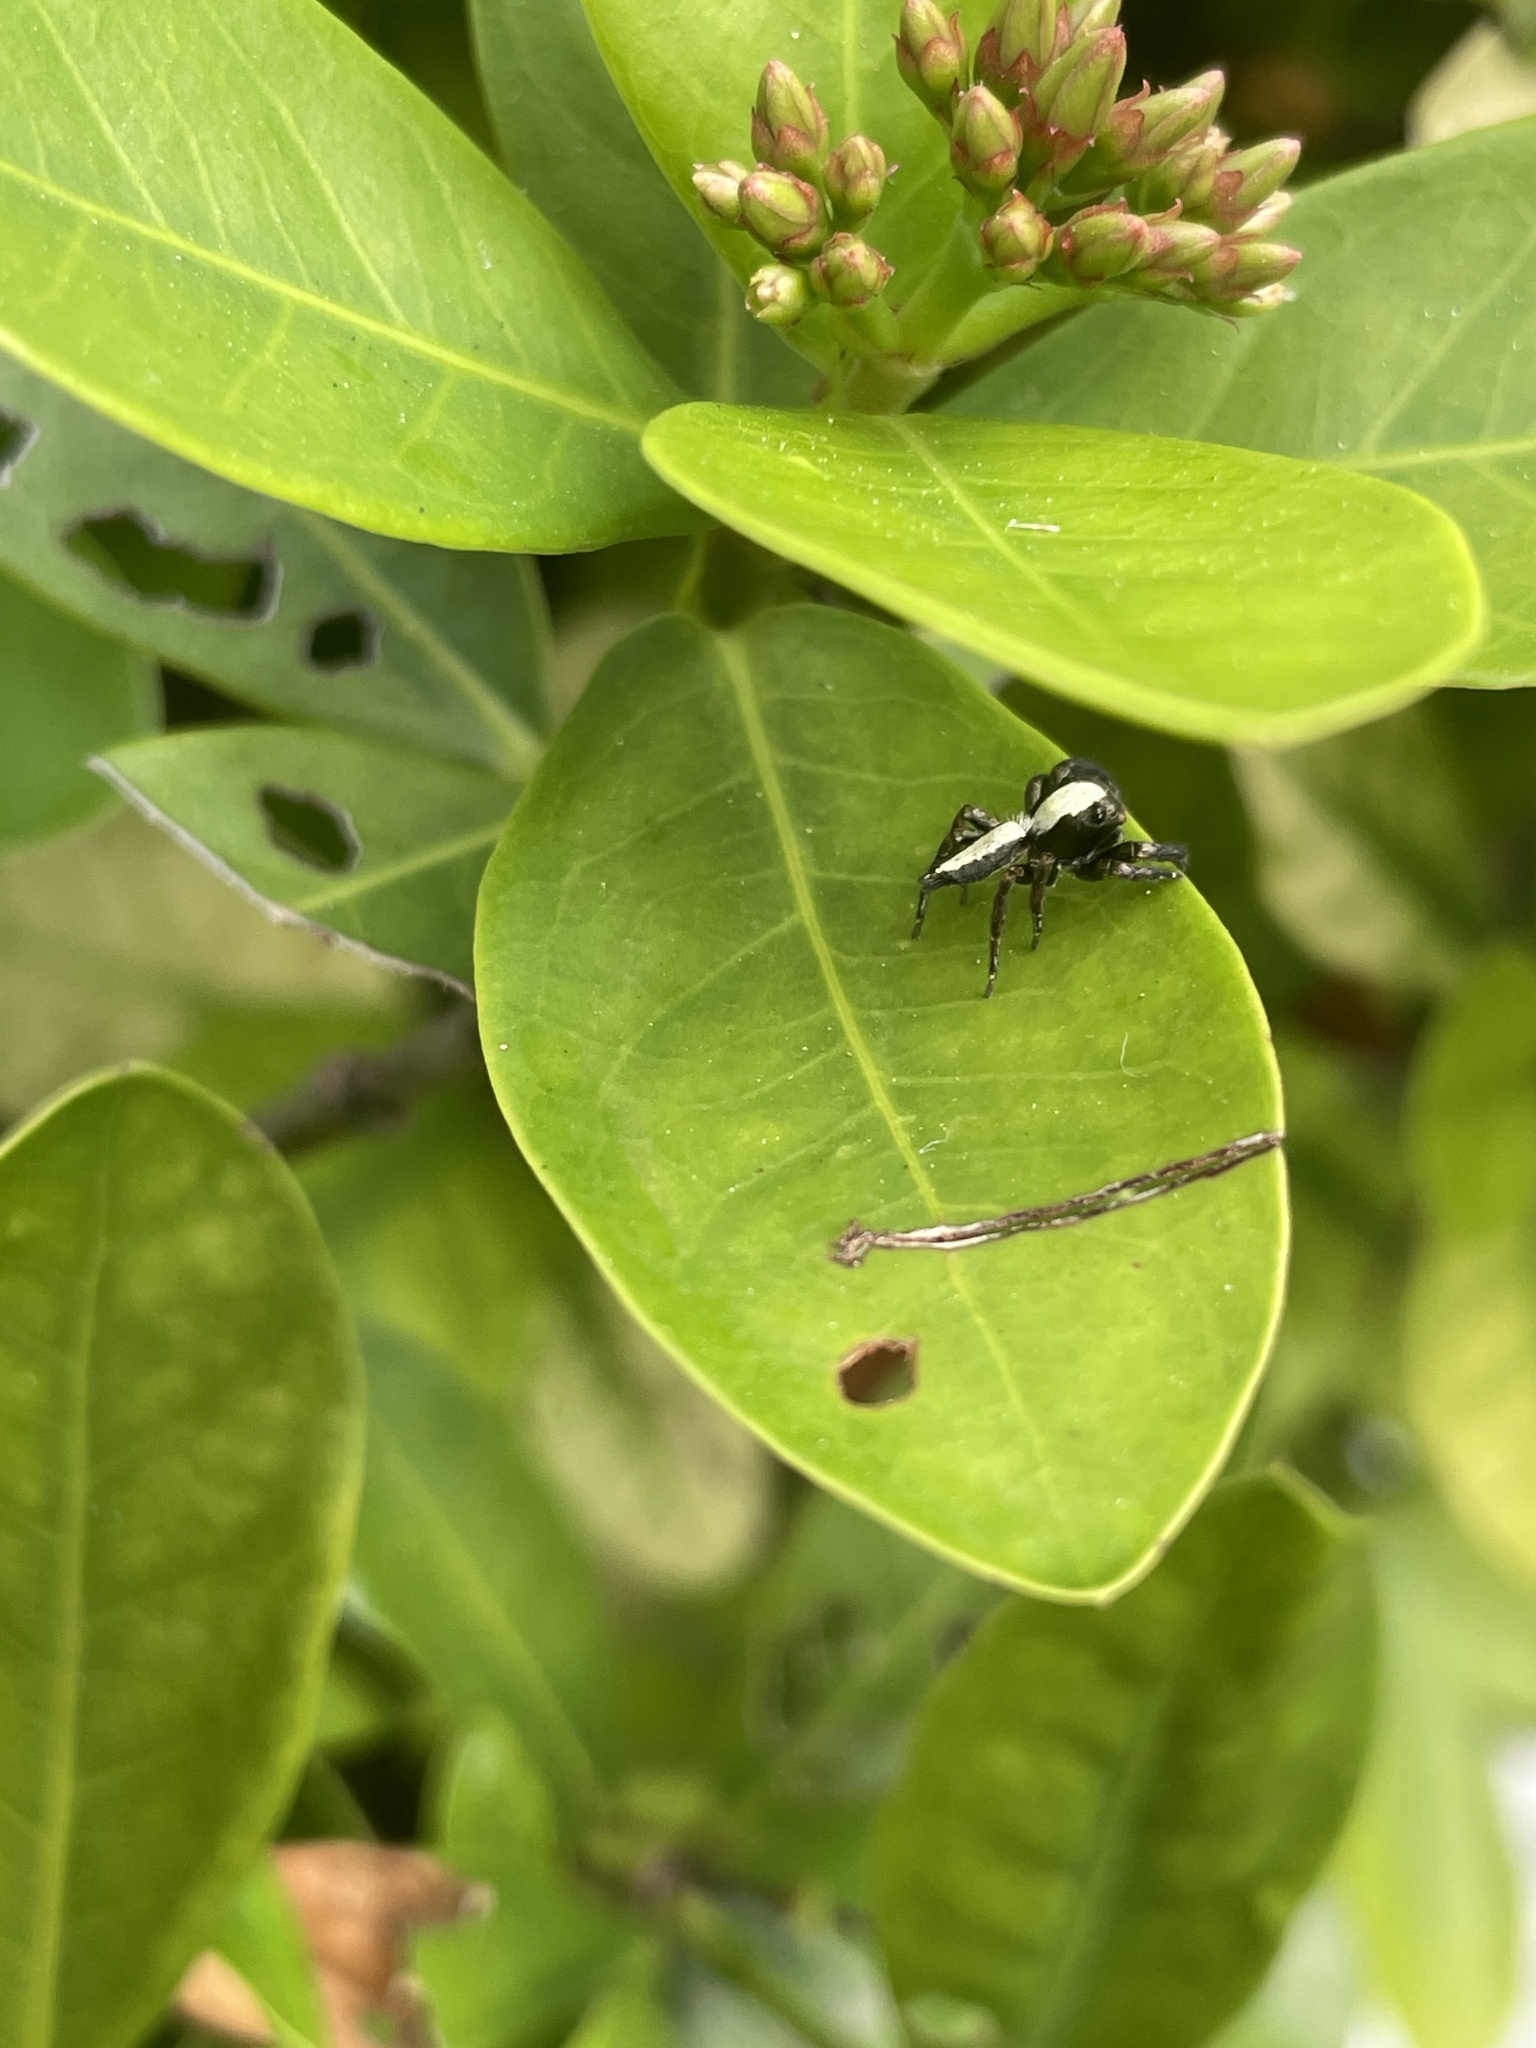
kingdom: Animalia
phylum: Arthropoda
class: Arachnida
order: Araneae
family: Salticidae
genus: Thyene
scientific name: Thyene orientalis
